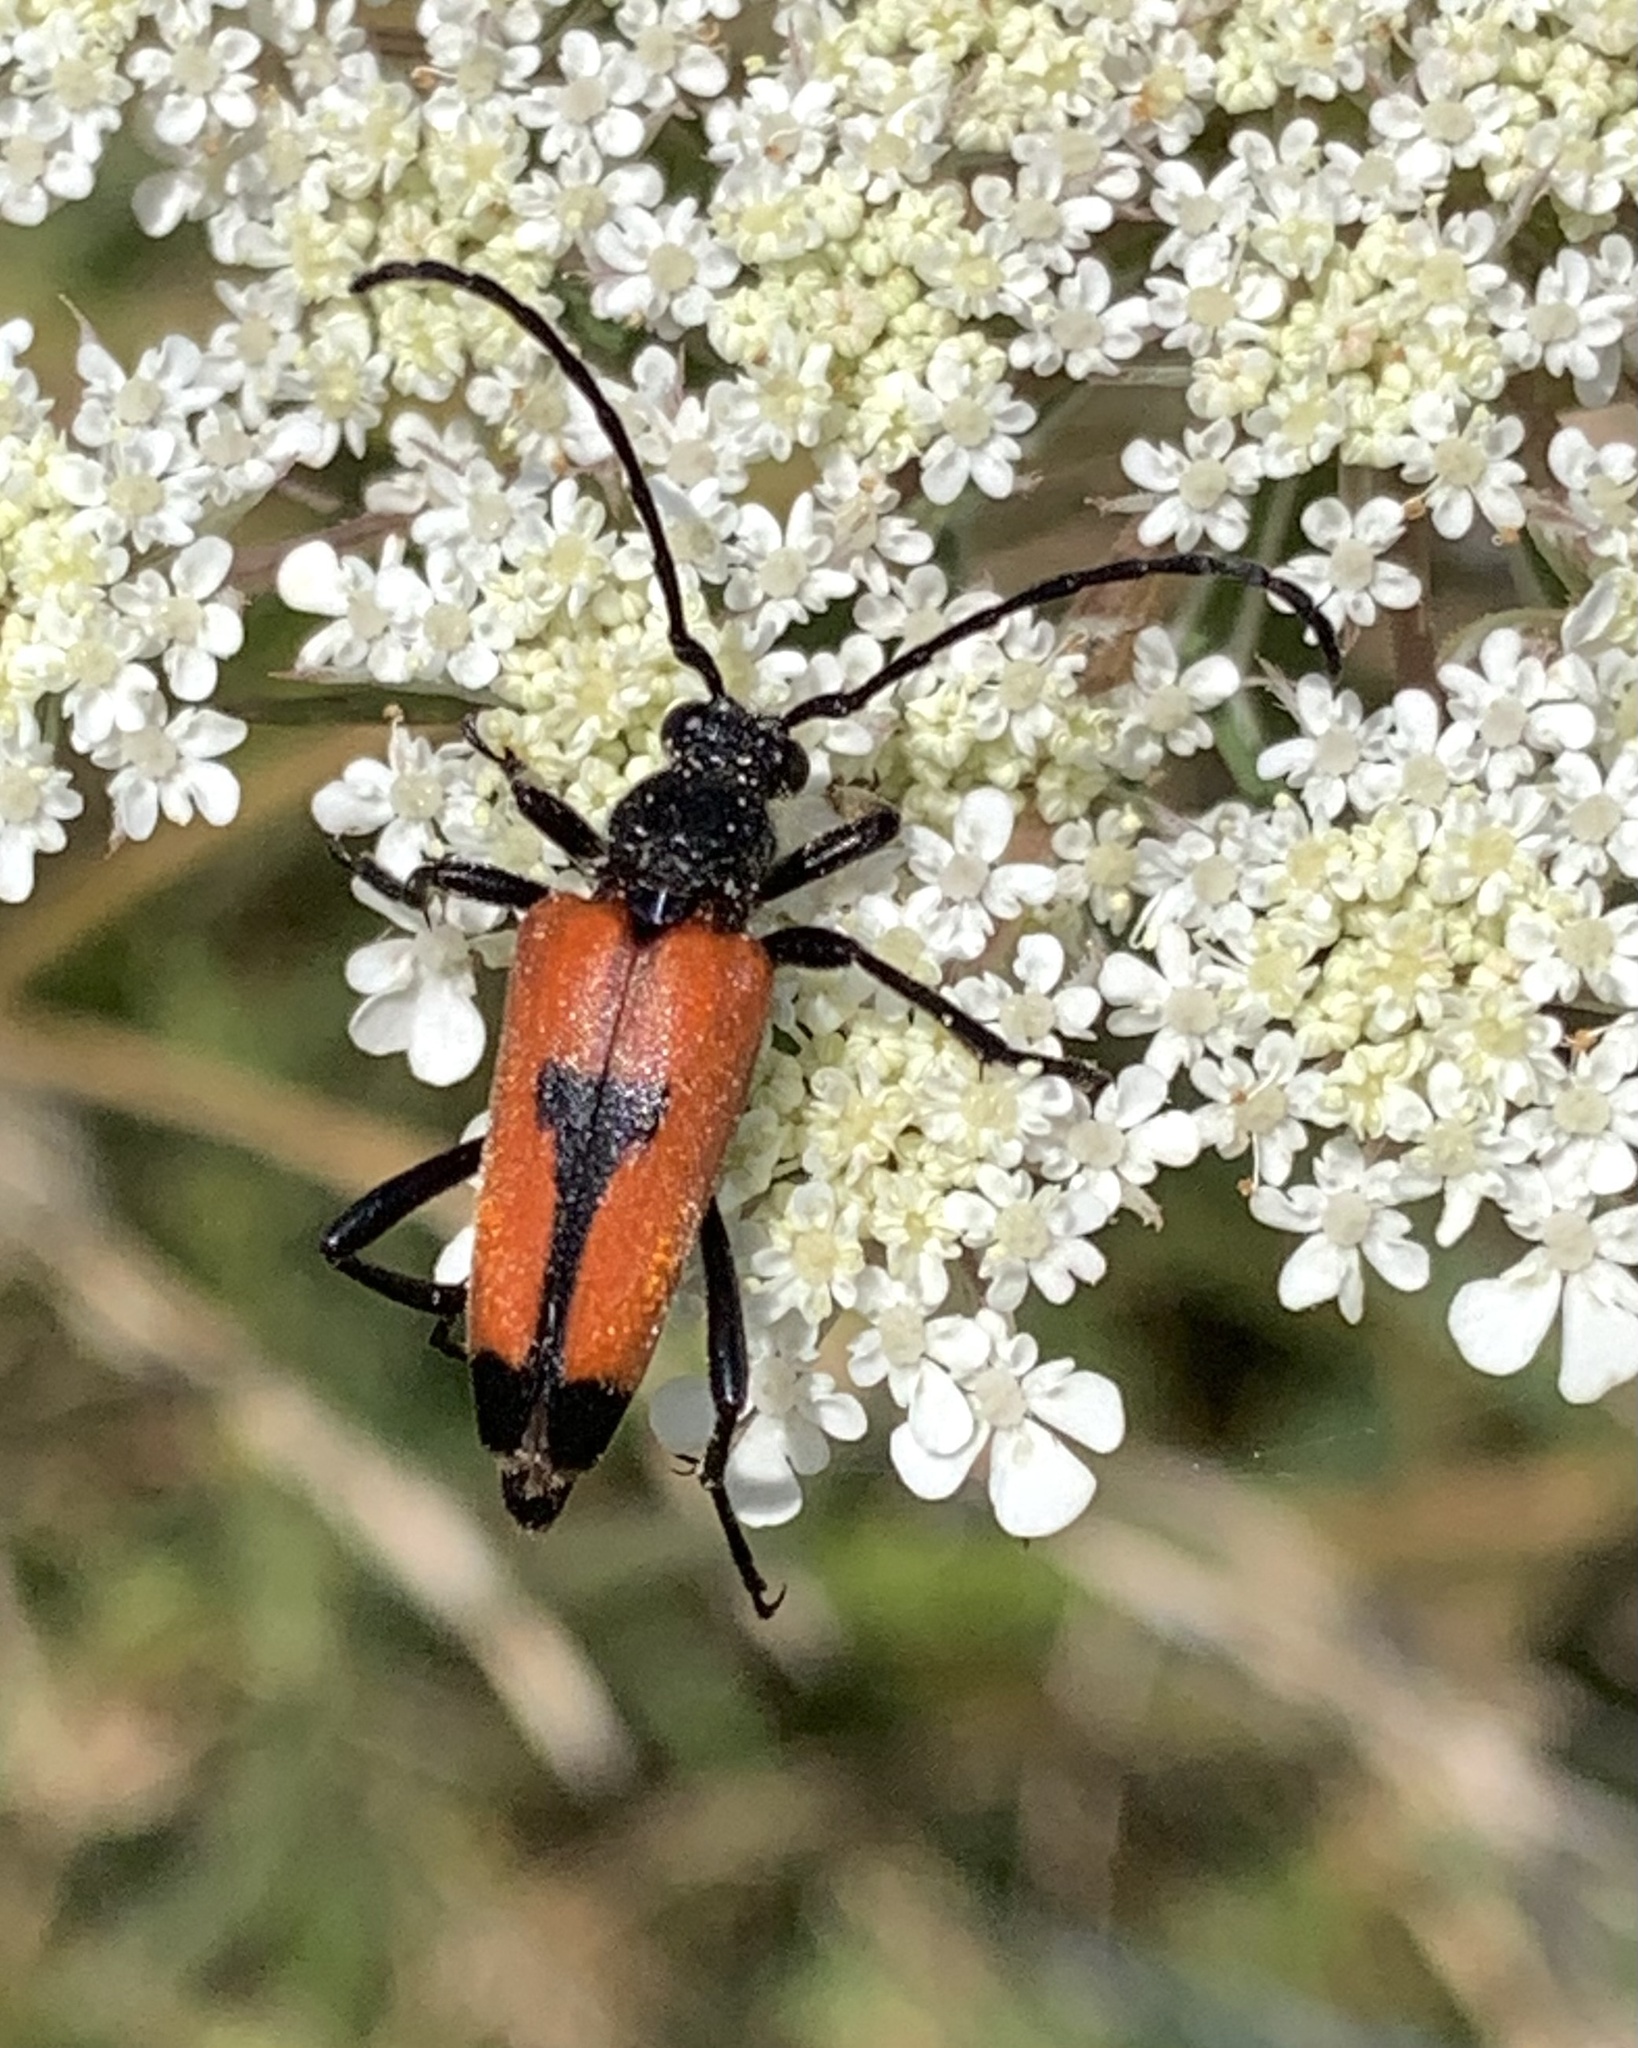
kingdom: Animalia
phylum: Arthropoda
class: Insecta
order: Coleoptera
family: Cerambycidae
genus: Stictoleptura
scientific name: Stictoleptura cordigera
